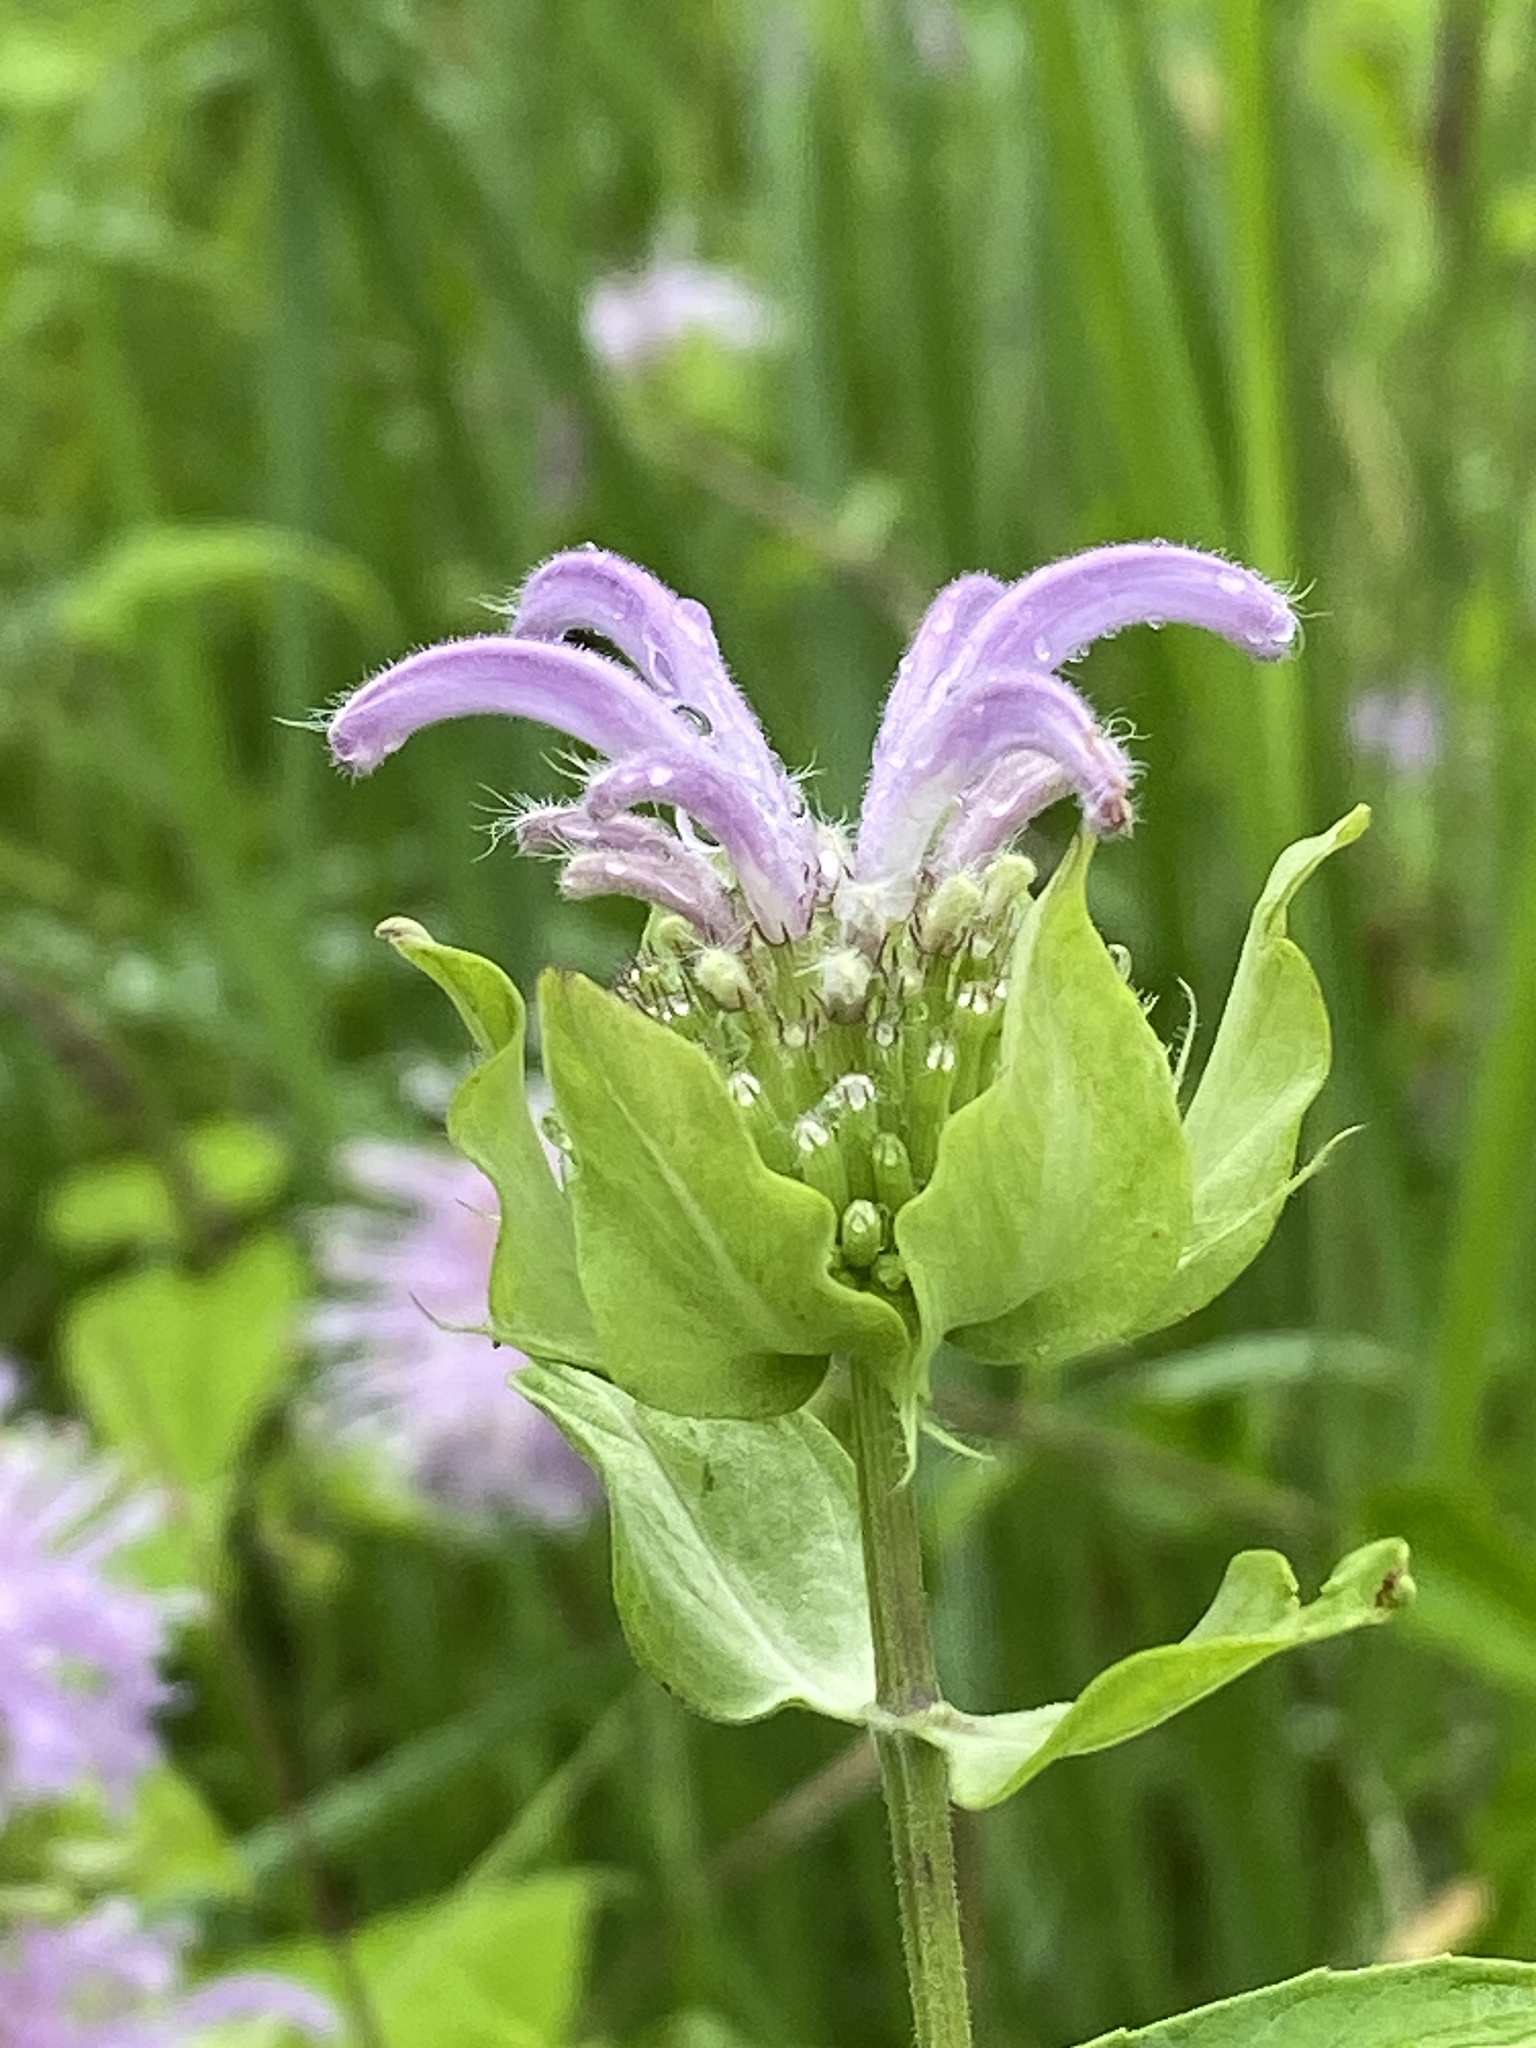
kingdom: Plantae
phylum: Tracheophyta
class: Magnoliopsida
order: Lamiales
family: Lamiaceae
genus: Monarda
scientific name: Monarda fistulosa
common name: Purple beebalm
